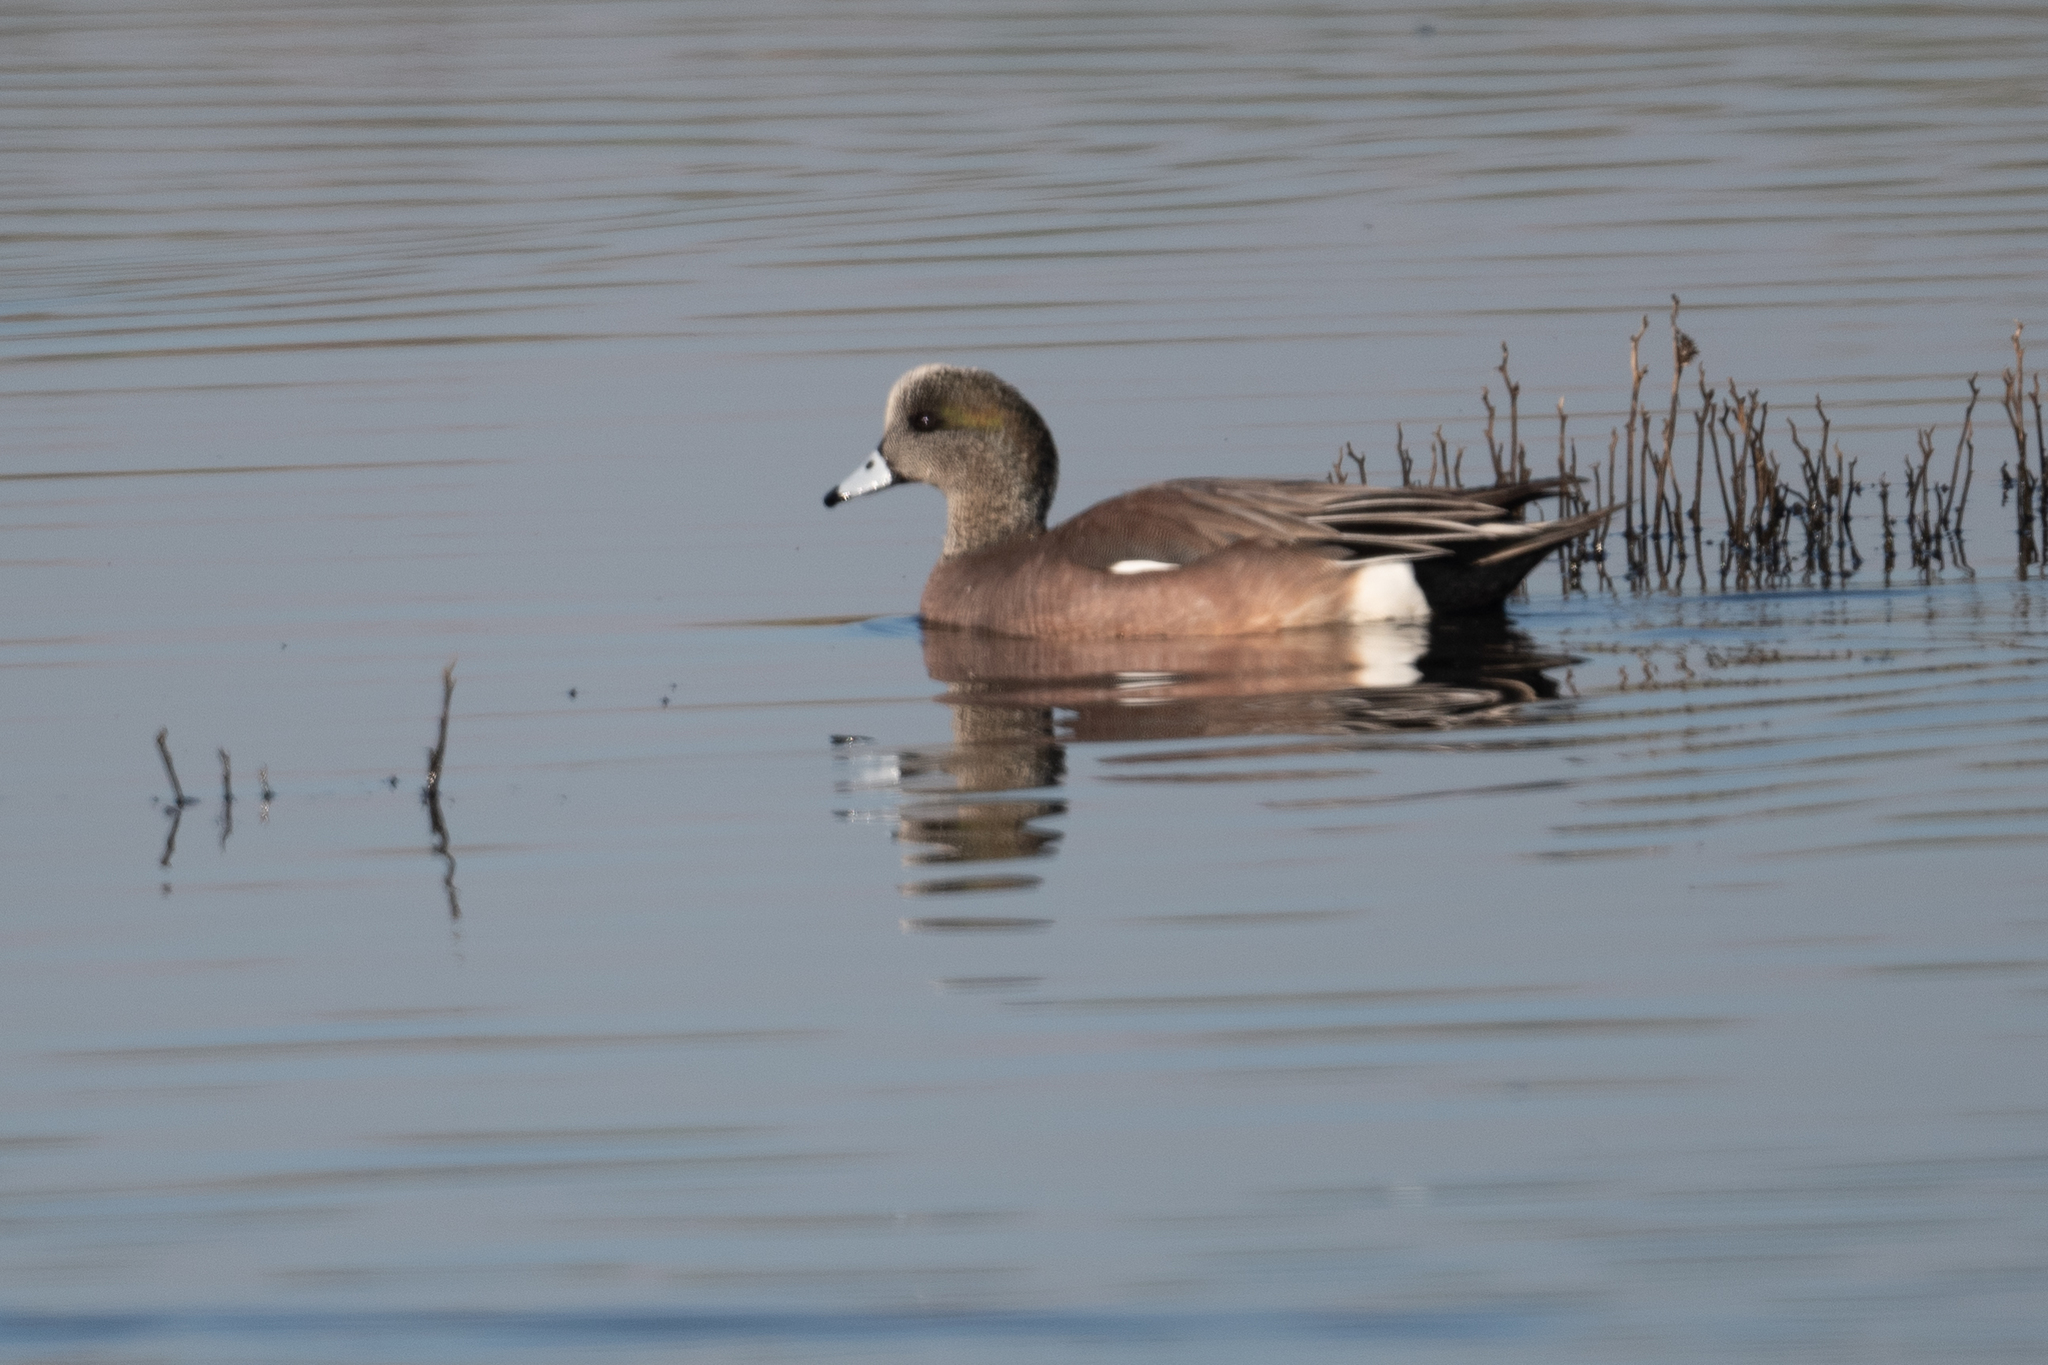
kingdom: Animalia
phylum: Chordata
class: Aves
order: Anseriformes
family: Anatidae
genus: Mareca
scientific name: Mareca americana
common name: American wigeon
